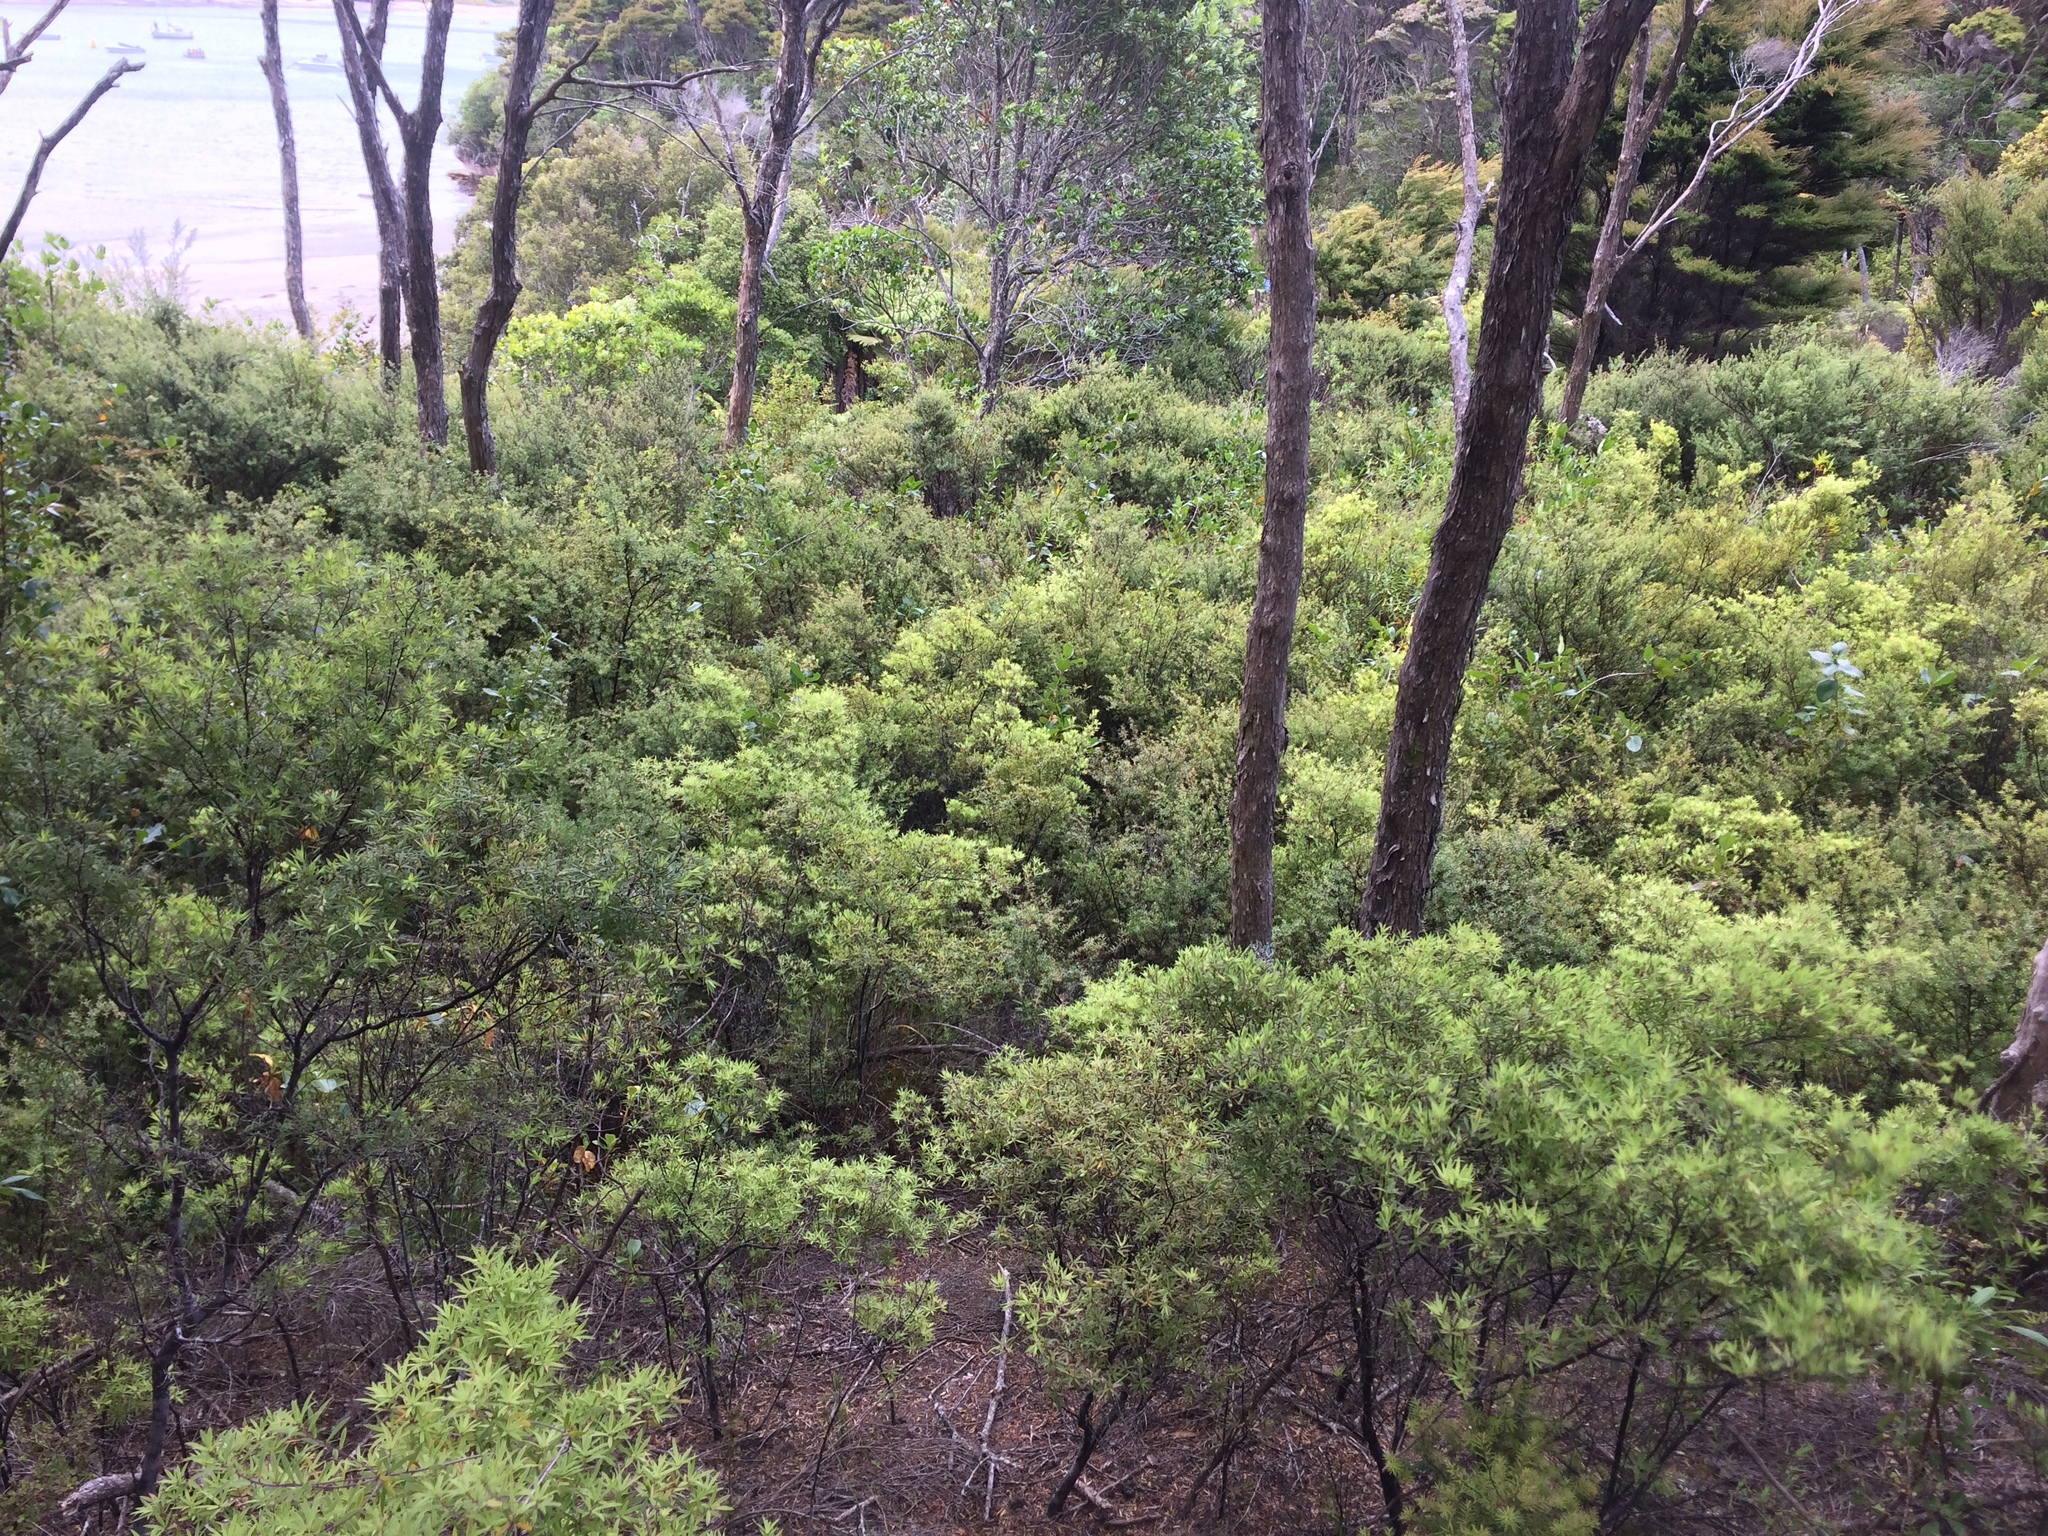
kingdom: Plantae
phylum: Tracheophyta
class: Magnoliopsida
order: Ericales
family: Ericaceae
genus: Leucopogon
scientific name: Leucopogon fasciculatus
